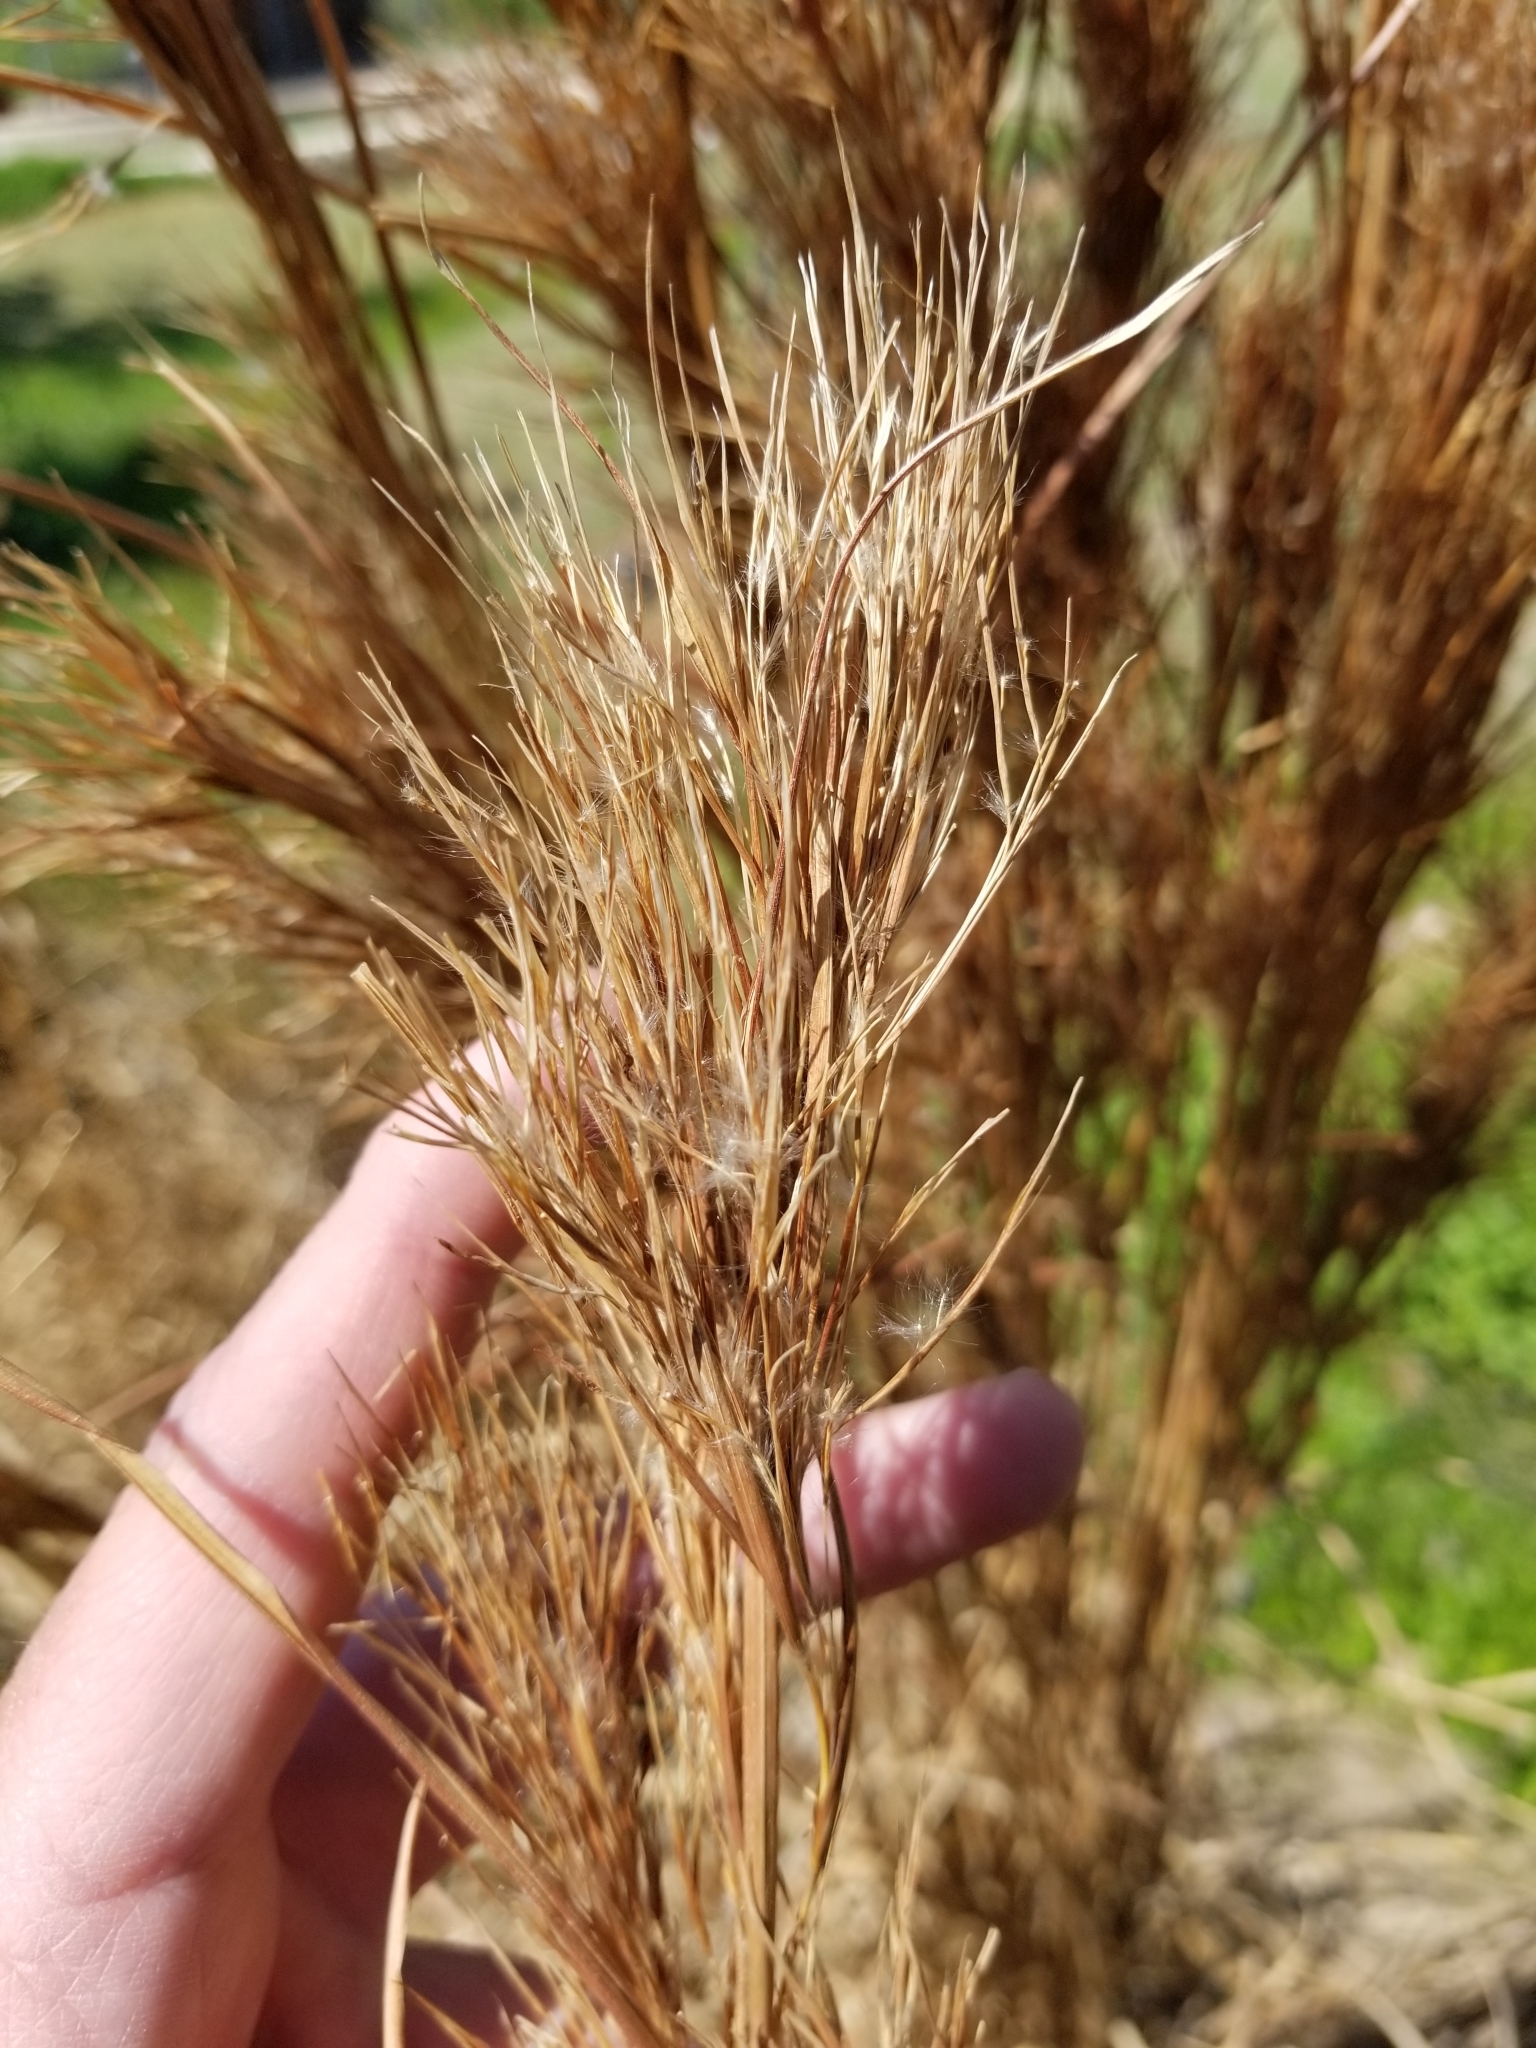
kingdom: Plantae
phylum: Tracheophyta
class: Liliopsida
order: Poales
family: Poaceae
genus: Andropogon
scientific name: Andropogon tenuispatheus
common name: Bushy bluestem
